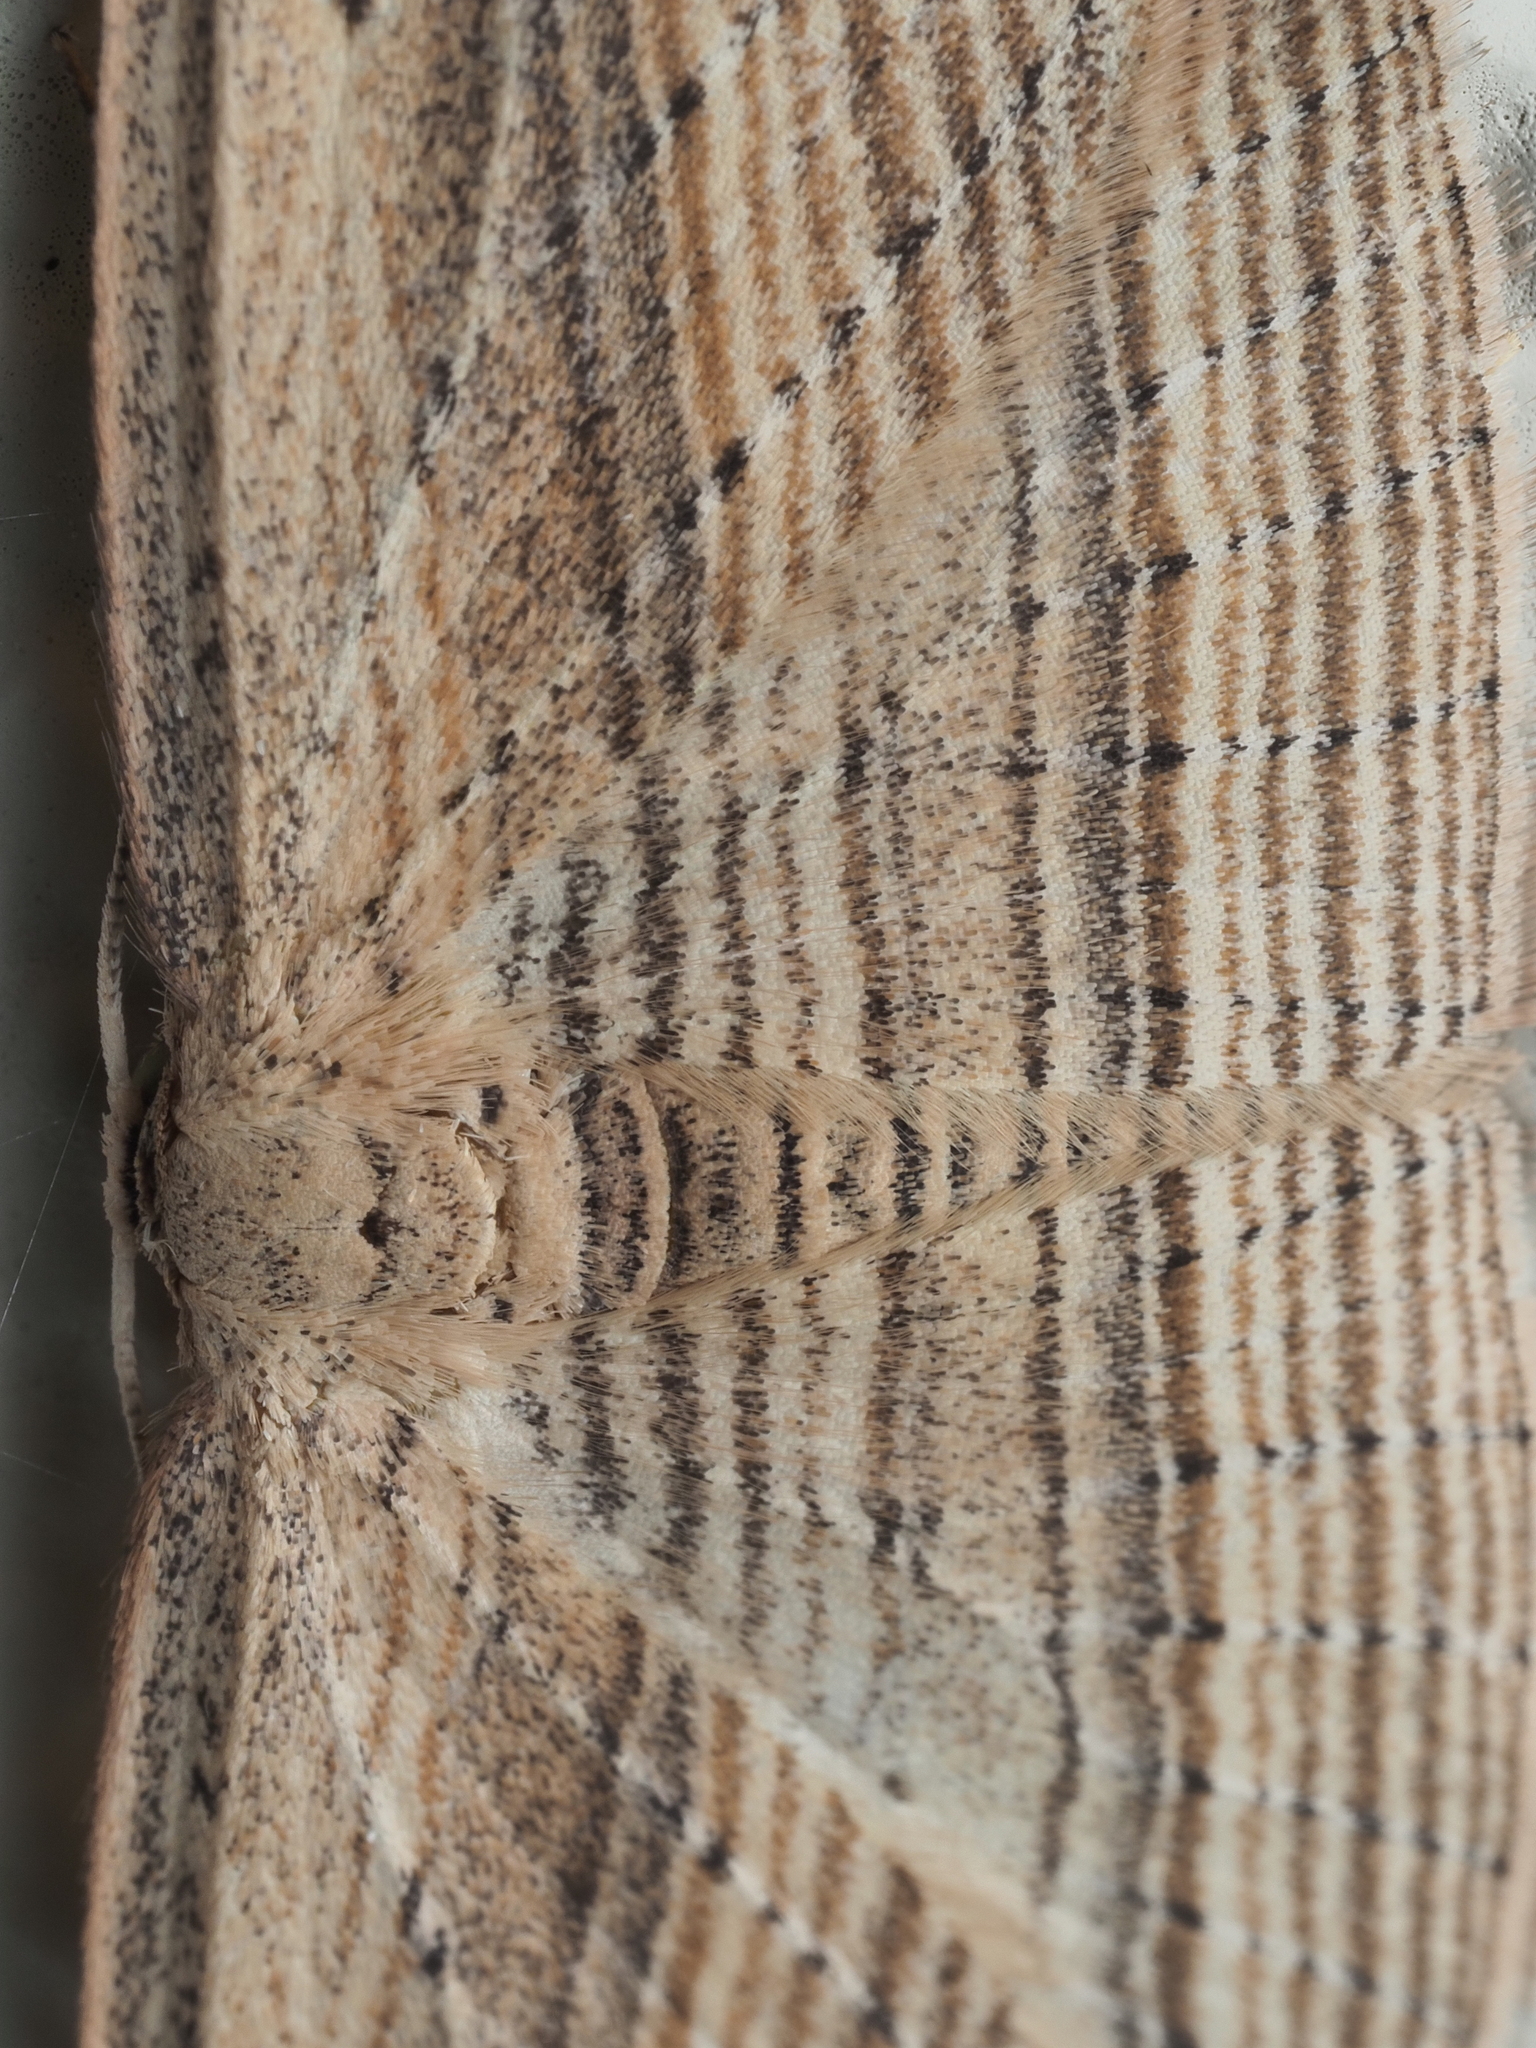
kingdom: Animalia
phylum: Arthropoda
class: Insecta
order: Lepidoptera
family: Geometridae
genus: Epiphryne
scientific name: Epiphryne verriculata
